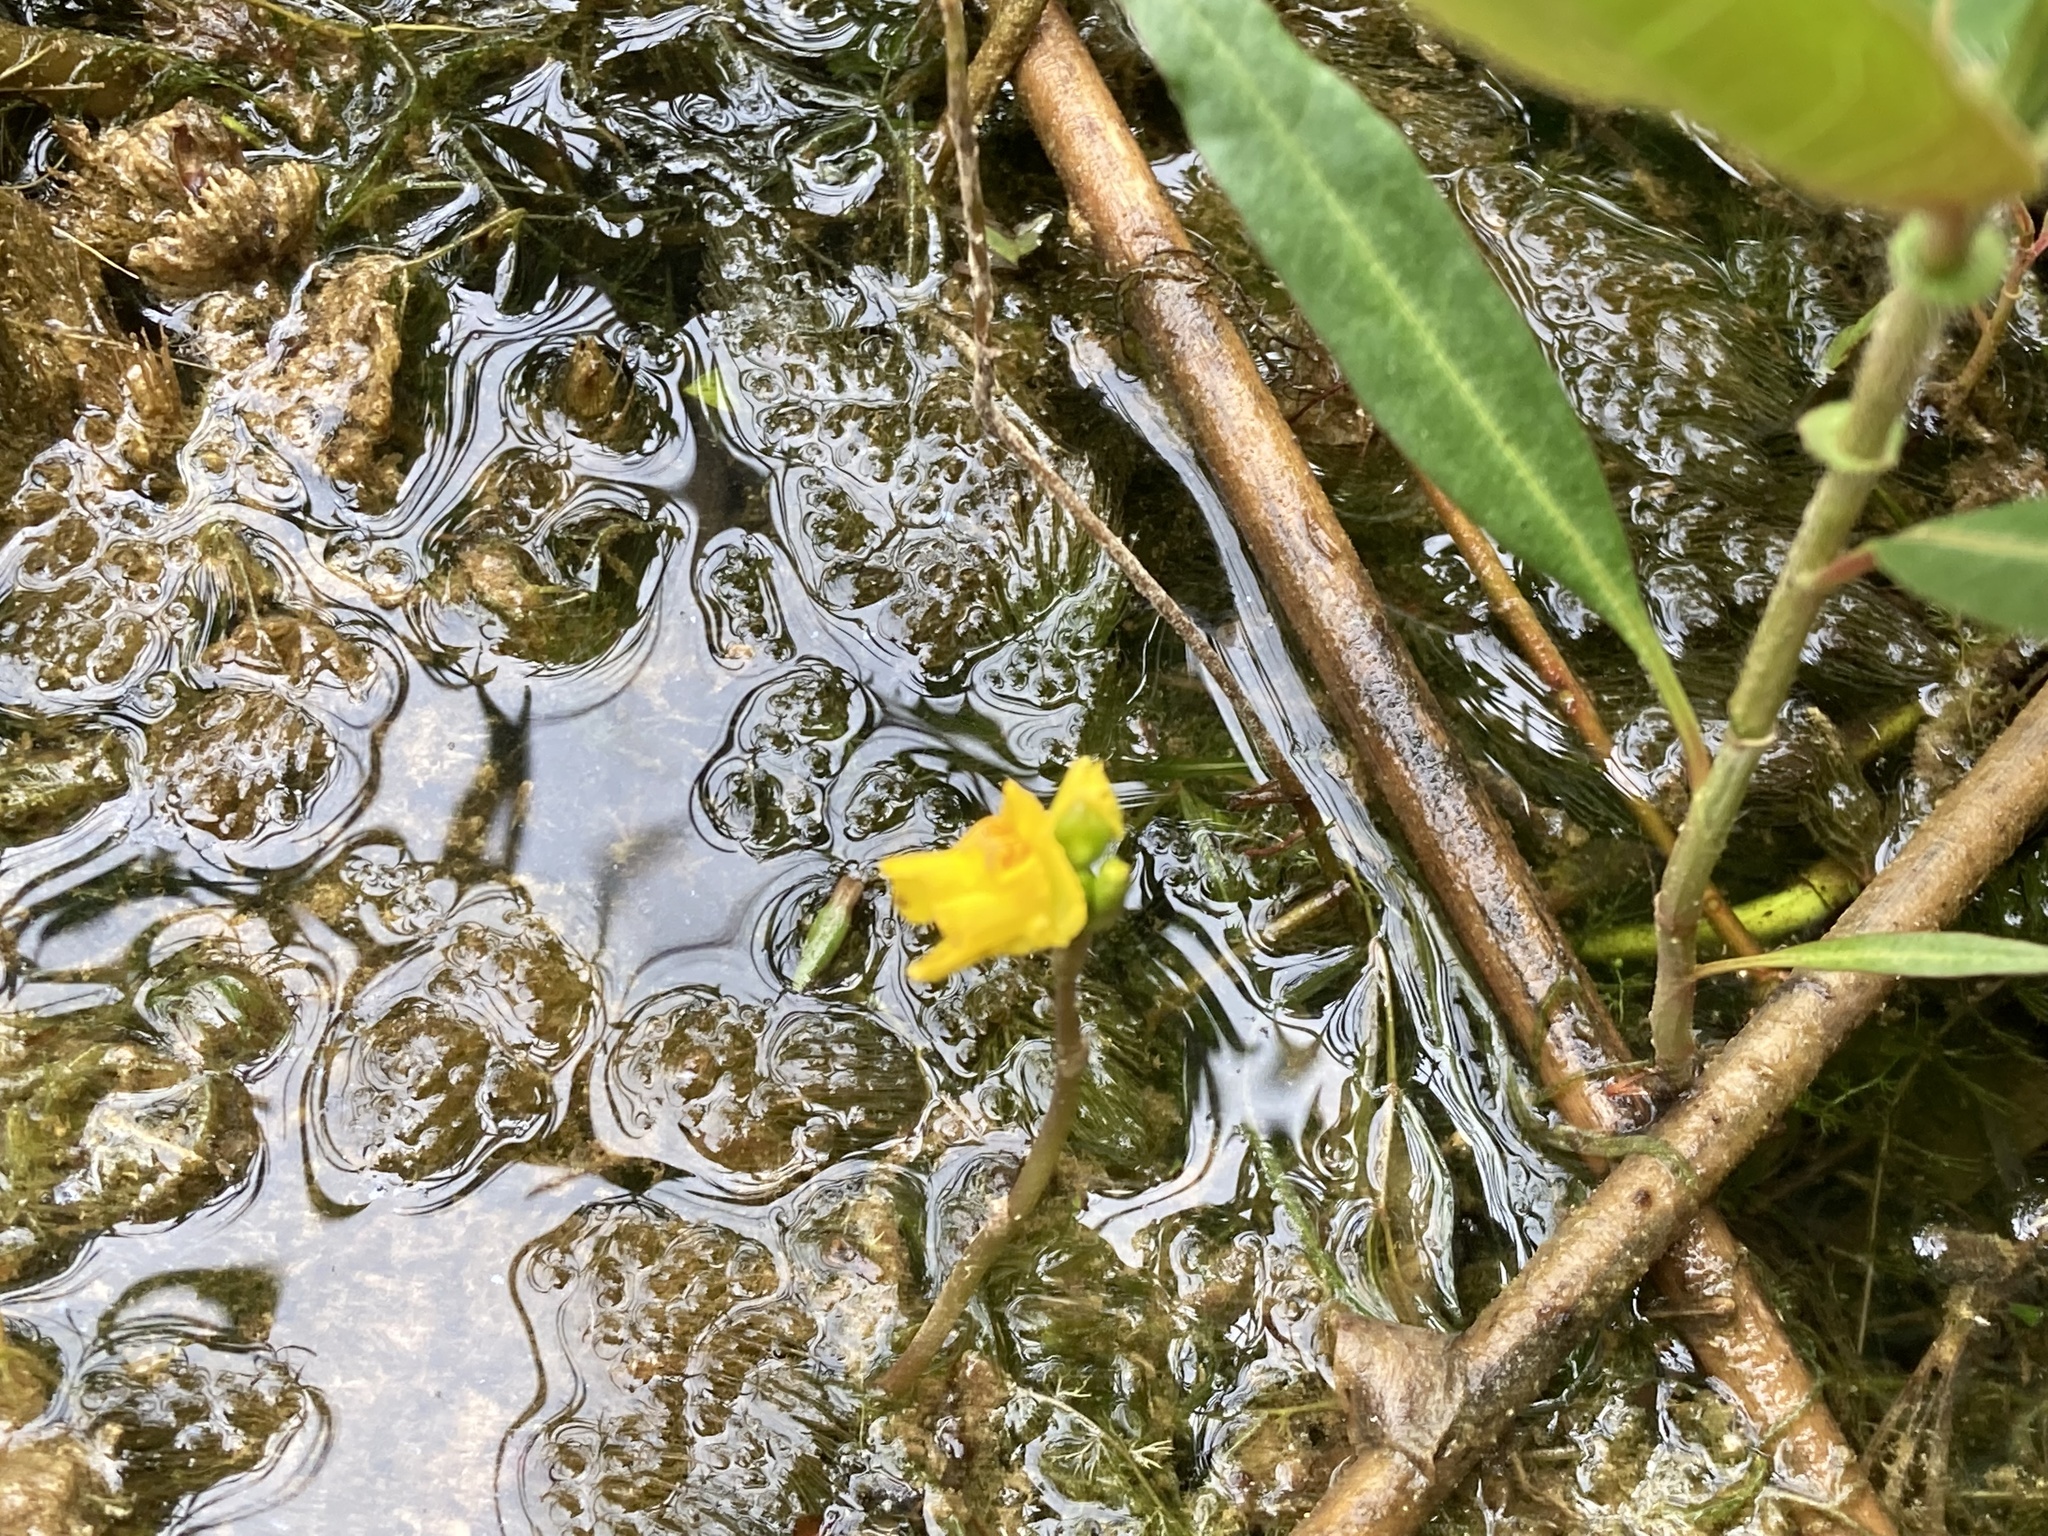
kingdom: Plantae
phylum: Tracheophyta
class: Magnoliopsida
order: Lamiales
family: Lentibulariaceae
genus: Utricularia
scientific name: Utricularia macrorhiza
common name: Common bladderwort
